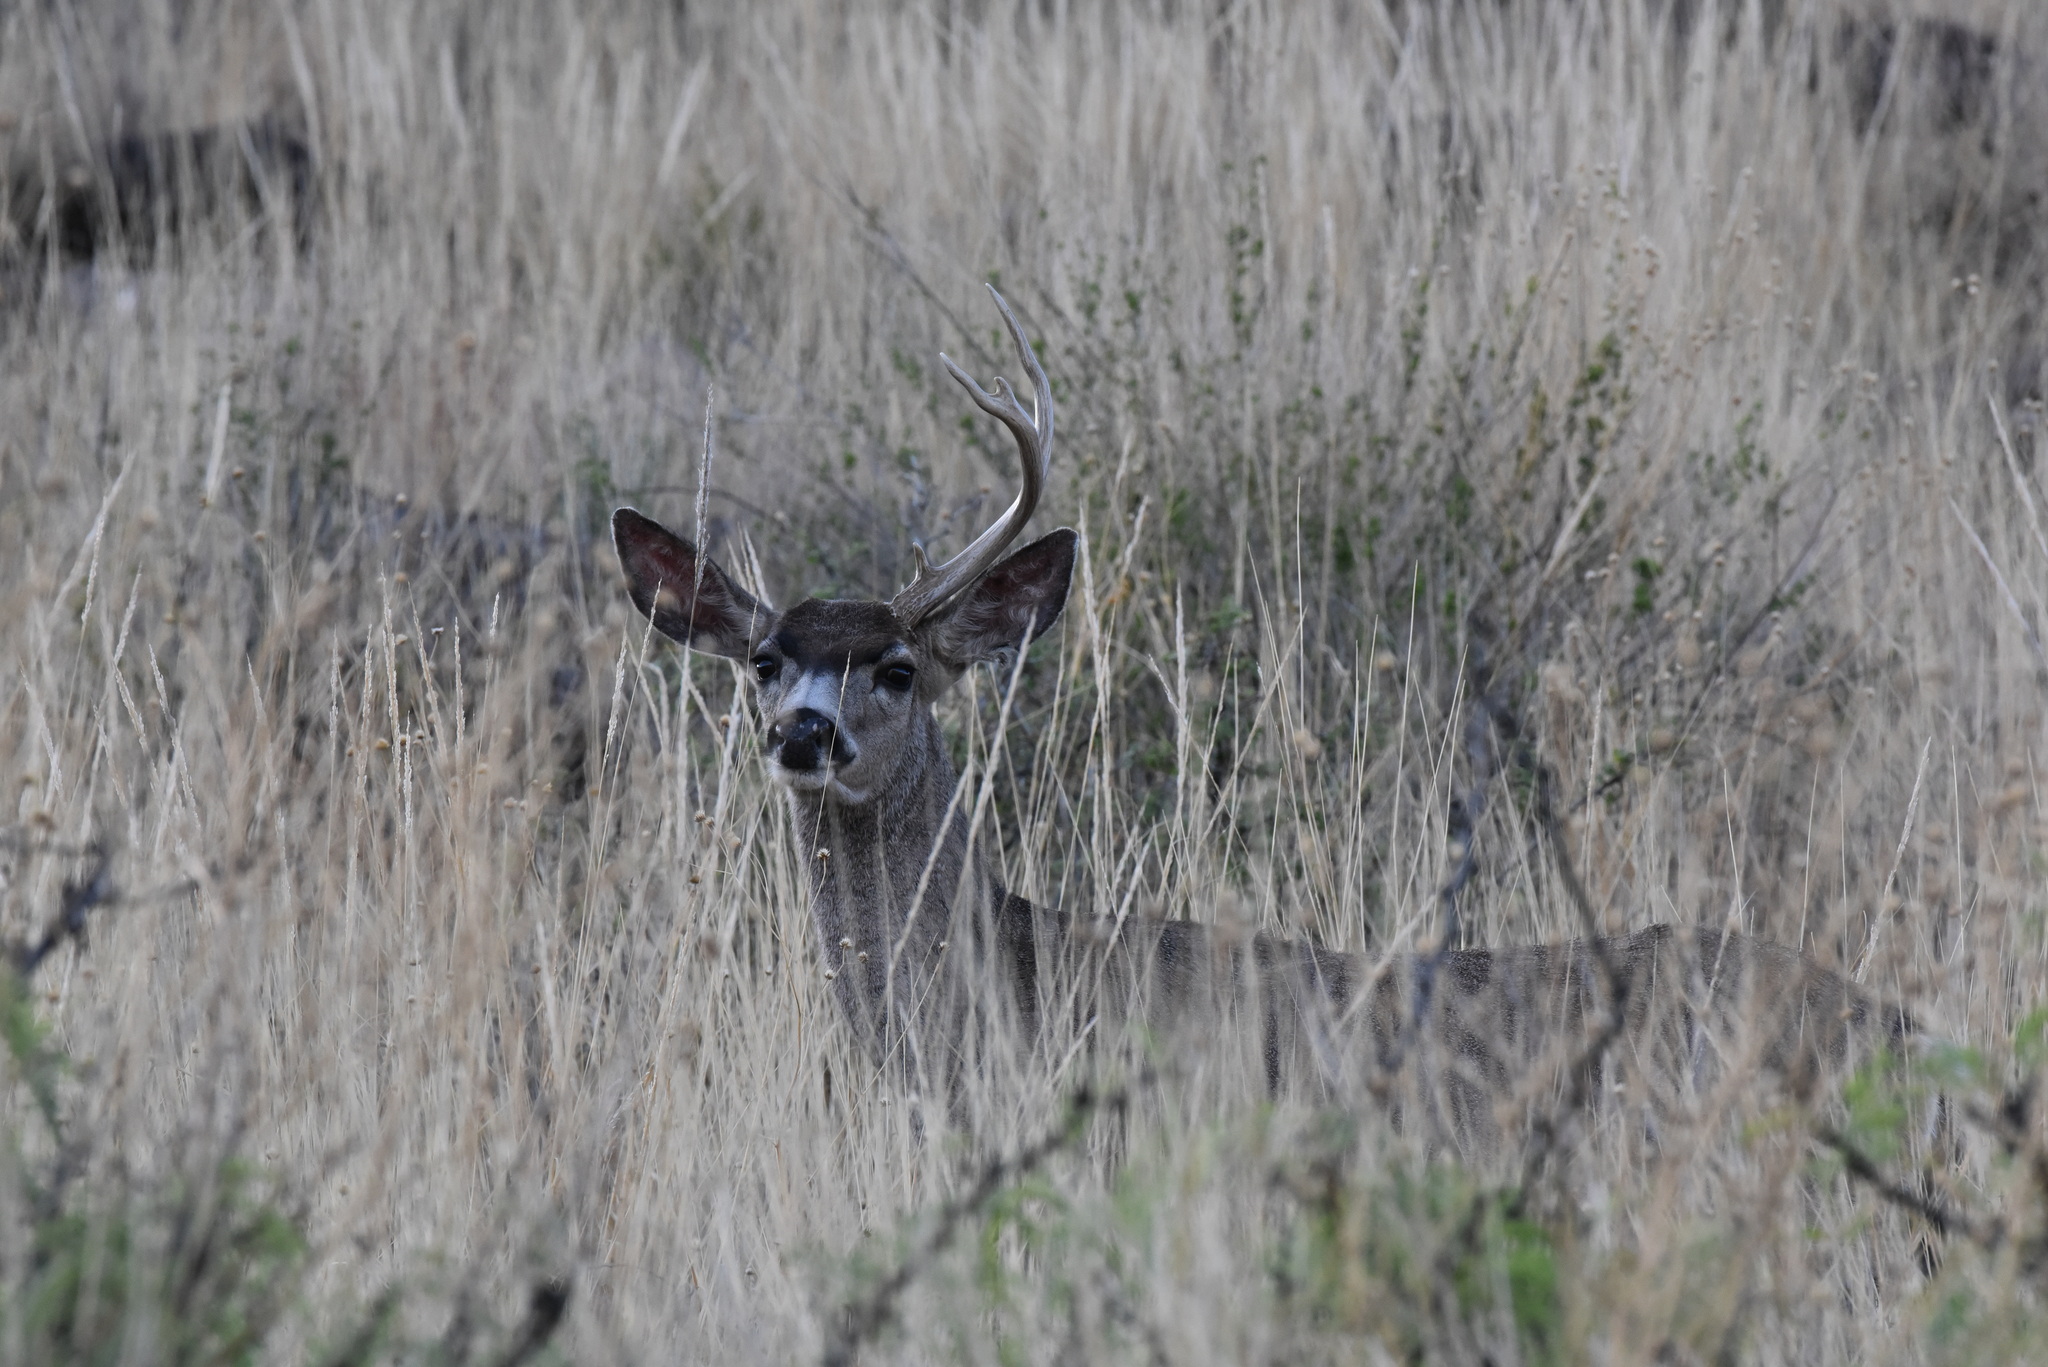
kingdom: Animalia
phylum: Chordata
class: Mammalia
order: Artiodactyla
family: Cervidae
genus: Odocoileus
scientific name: Odocoileus hemionus
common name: Mule deer
